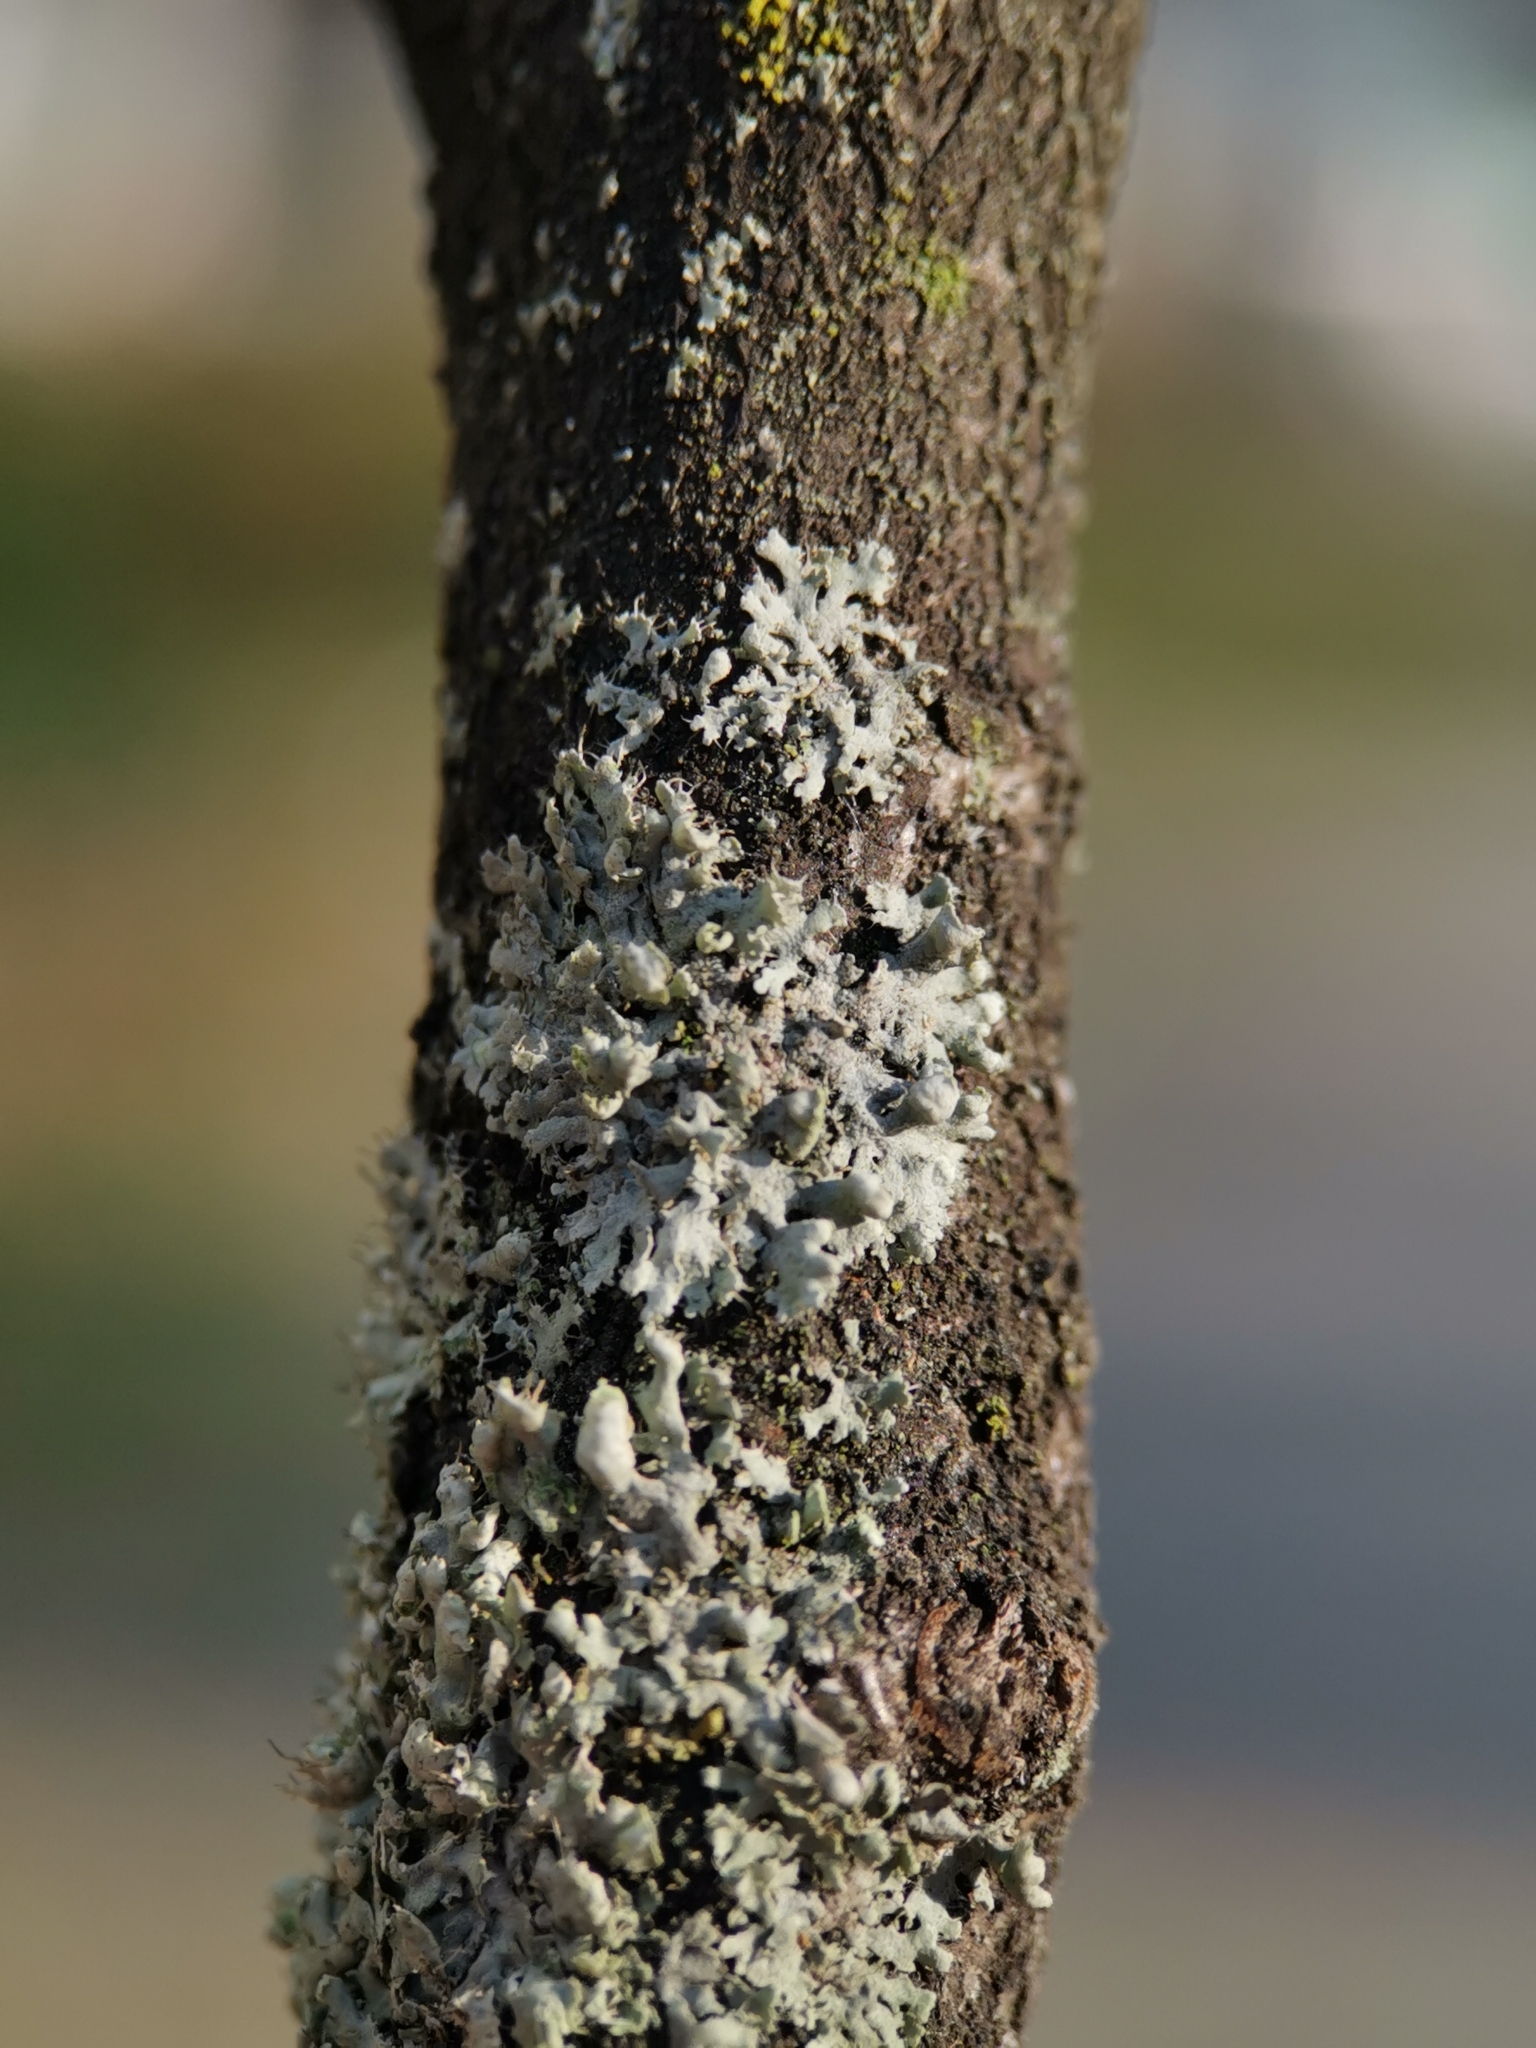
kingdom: Fungi
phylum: Ascomycota
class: Lecanoromycetes
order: Caliciales
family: Physciaceae
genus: Physcia
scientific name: Physcia adscendens
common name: Hooded rosette lichen
